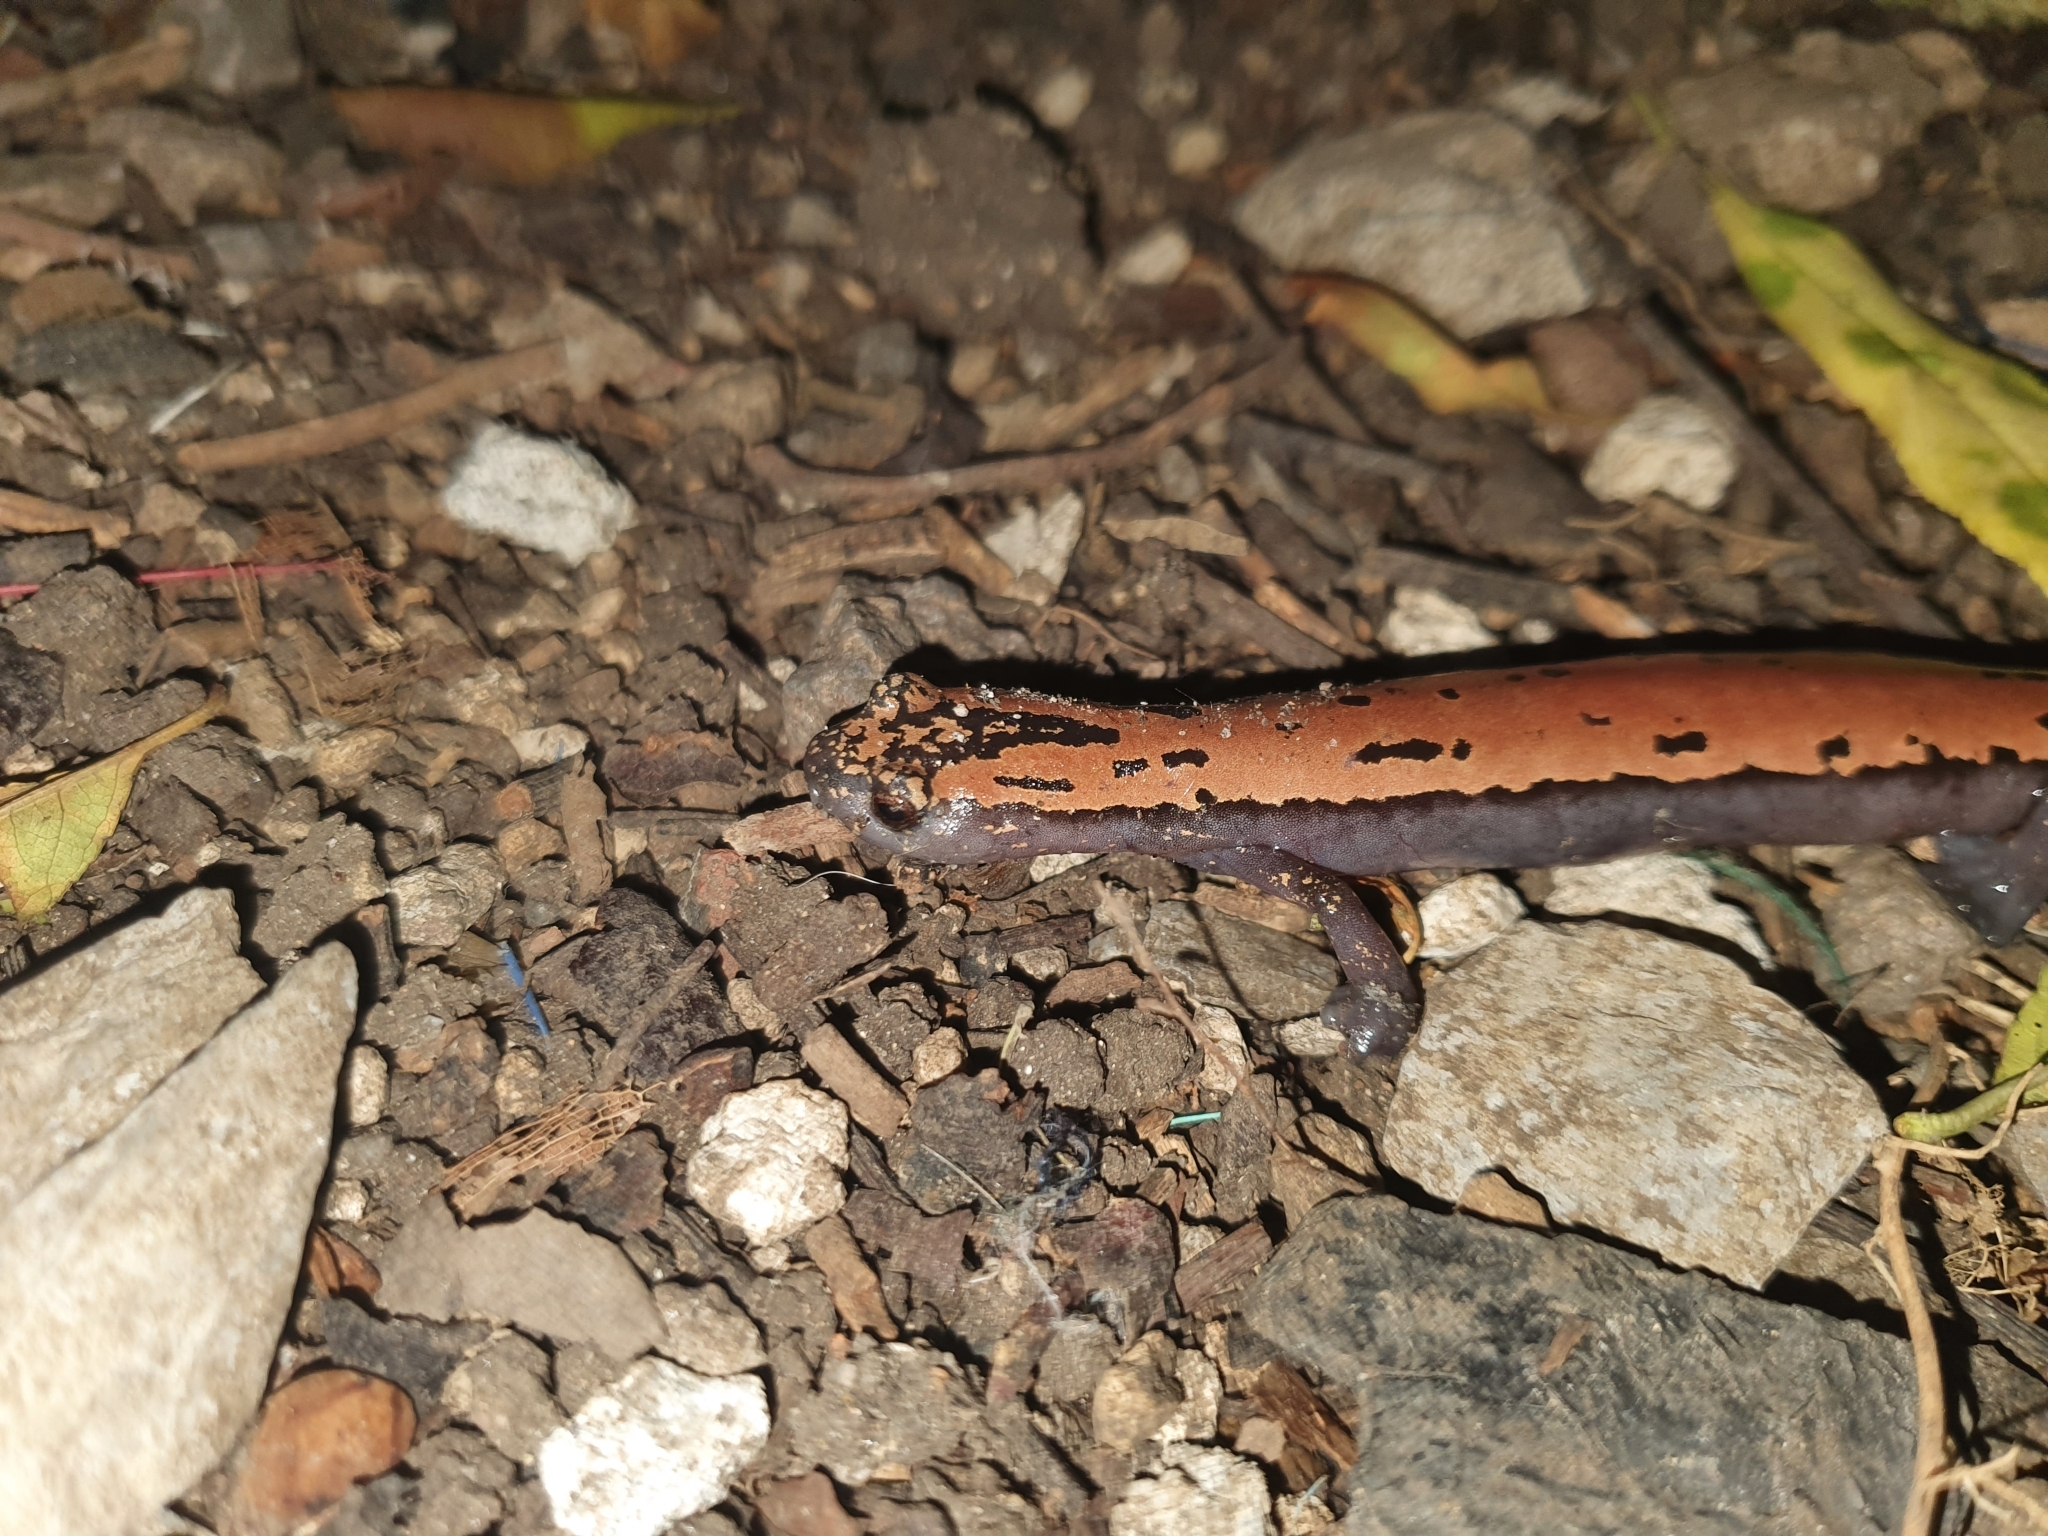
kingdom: Animalia
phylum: Chordata
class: Amphibia
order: Caudata
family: Plethodontidae
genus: Bolitoglossa
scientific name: Bolitoglossa platydactyla
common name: Broad-footed salamander
